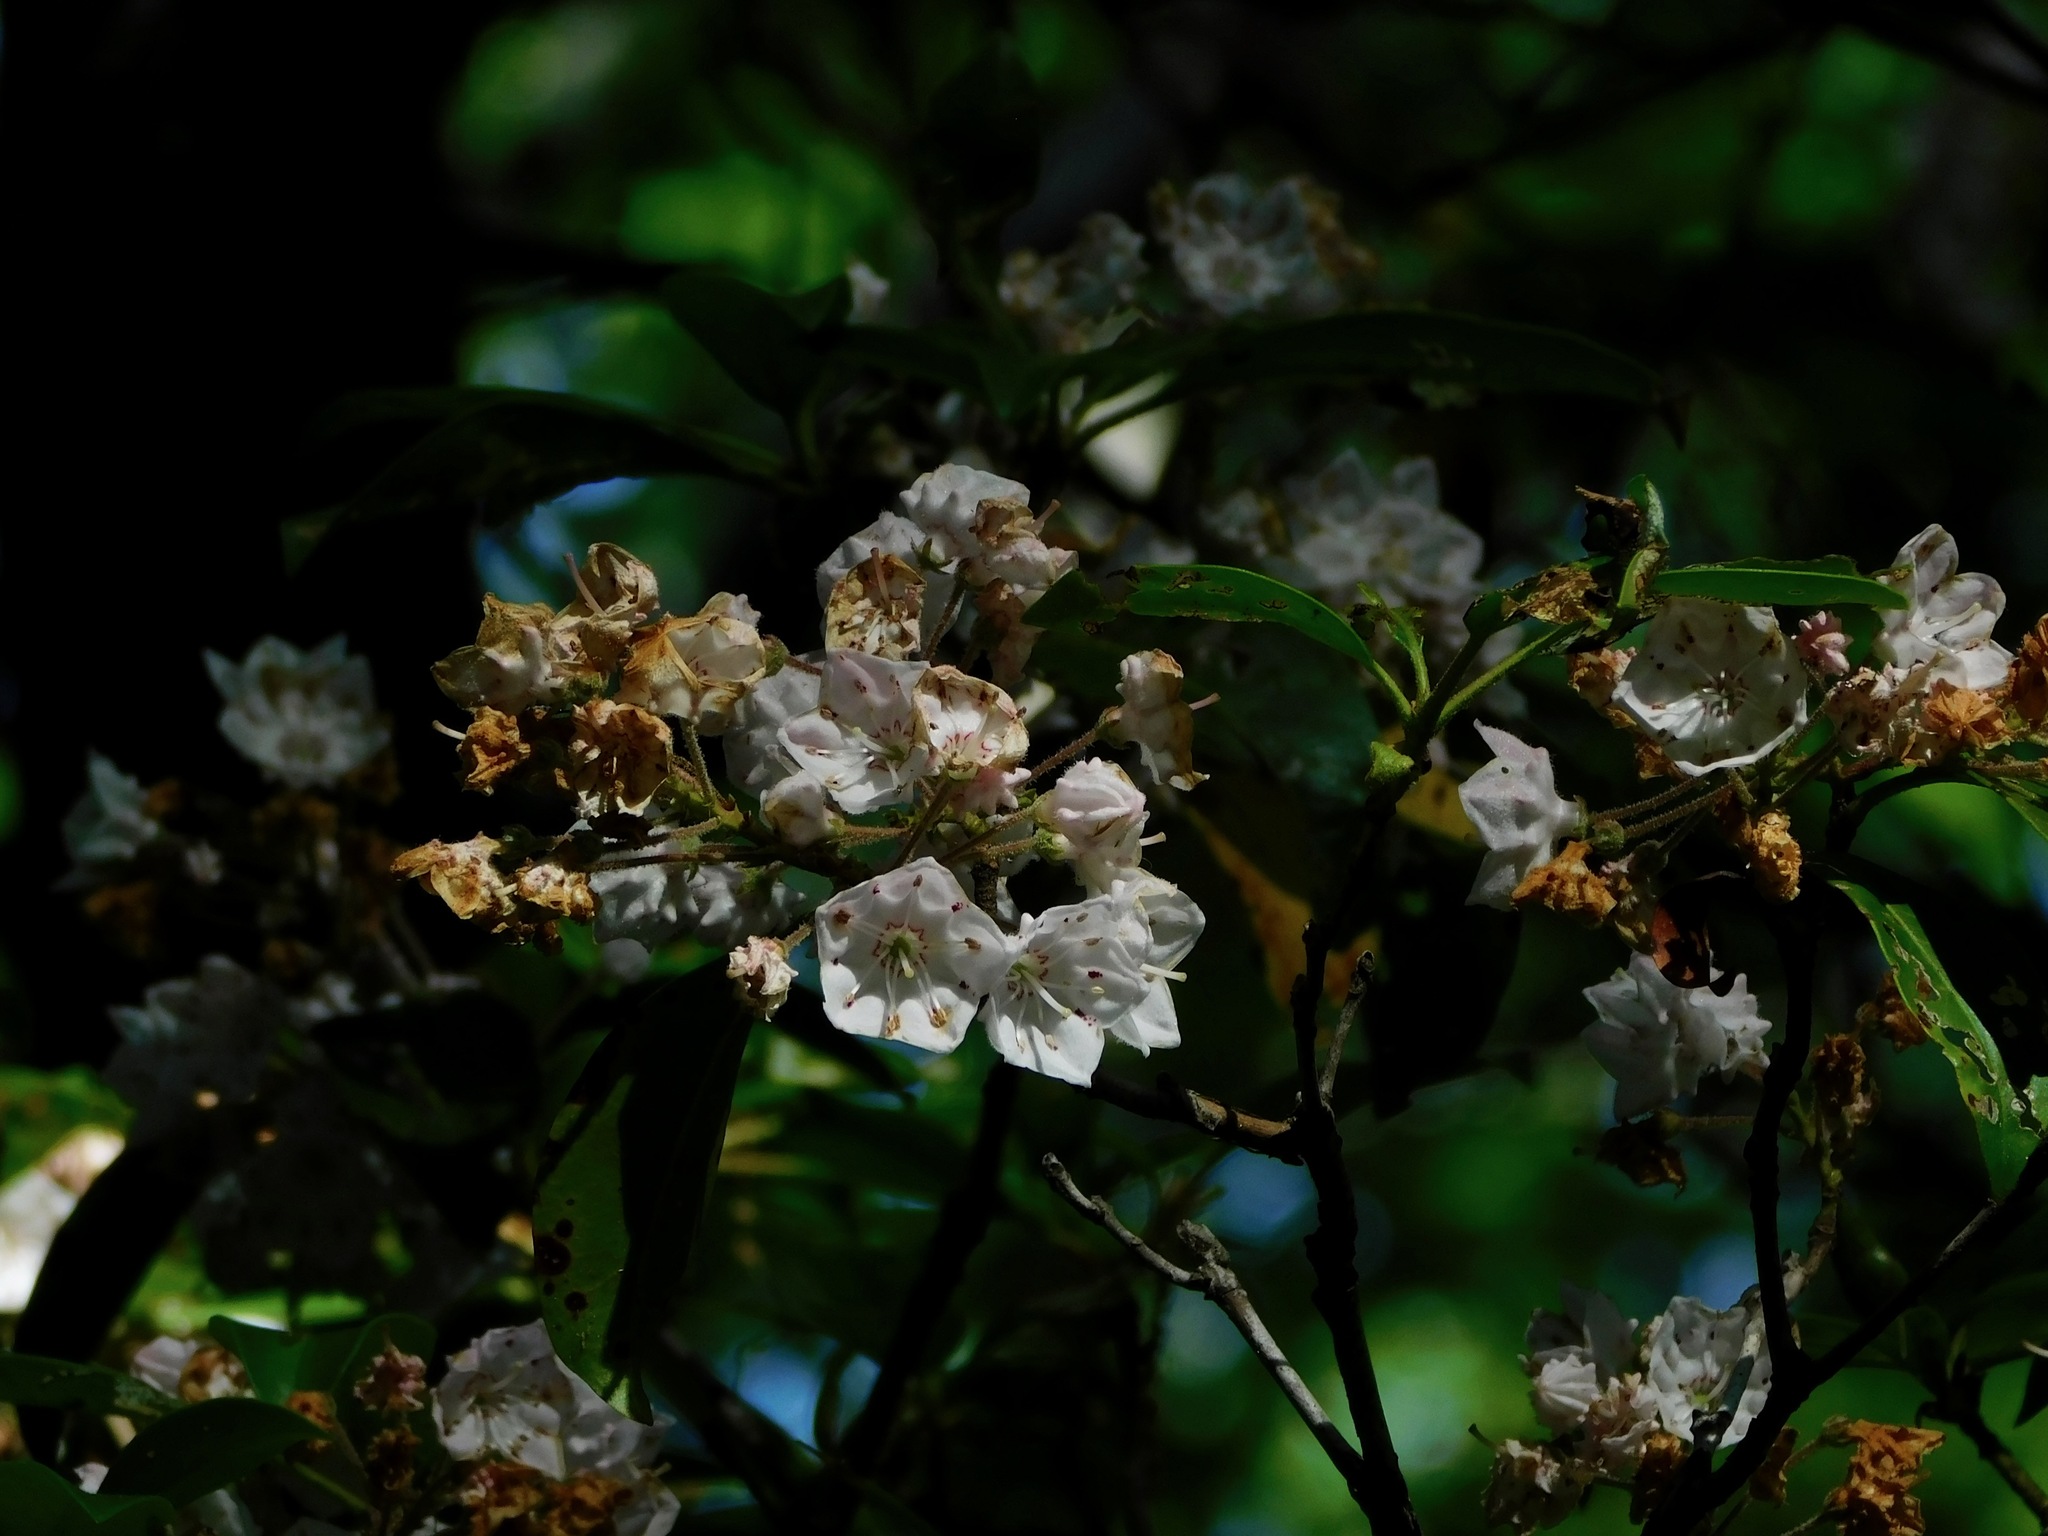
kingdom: Plantae
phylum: Tracheophyta
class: Magnoliopsida
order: Ericales
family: Ericaceae
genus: Kalmia
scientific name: Kalmia latifolia
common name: Mountain-laurel
